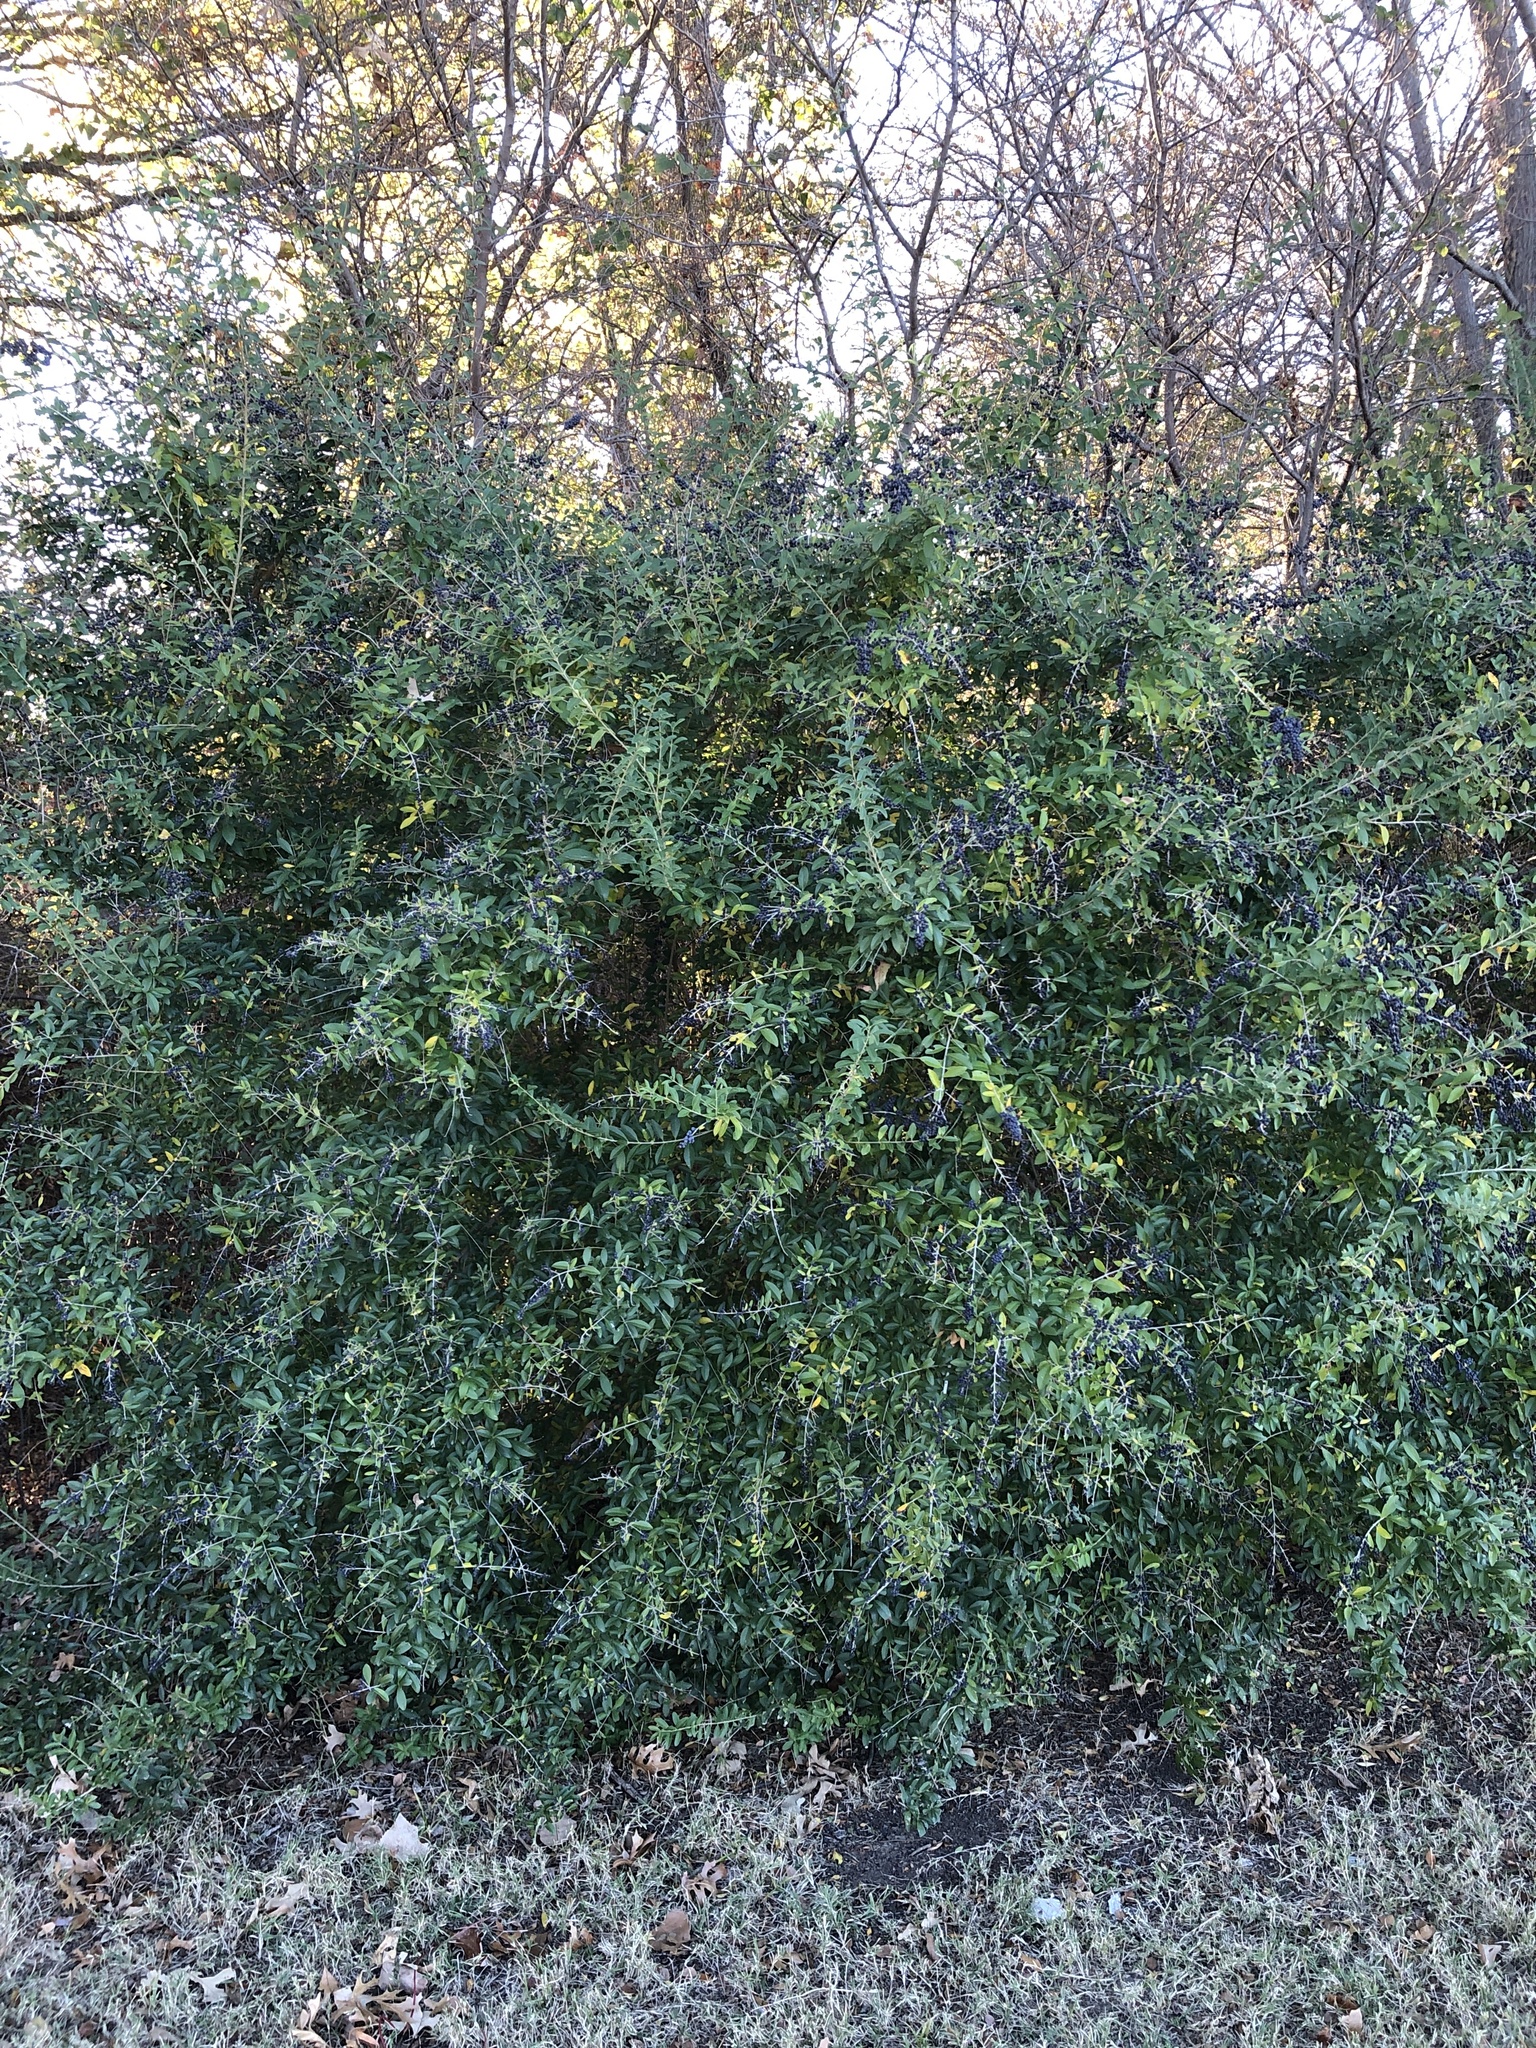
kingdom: Plantae
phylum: Tracheophyta
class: Magnoliopsida
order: Lamiales
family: Oleaceae
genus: Ligustrum
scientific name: Ligustrum quihoui
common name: Waxyleaf privet
